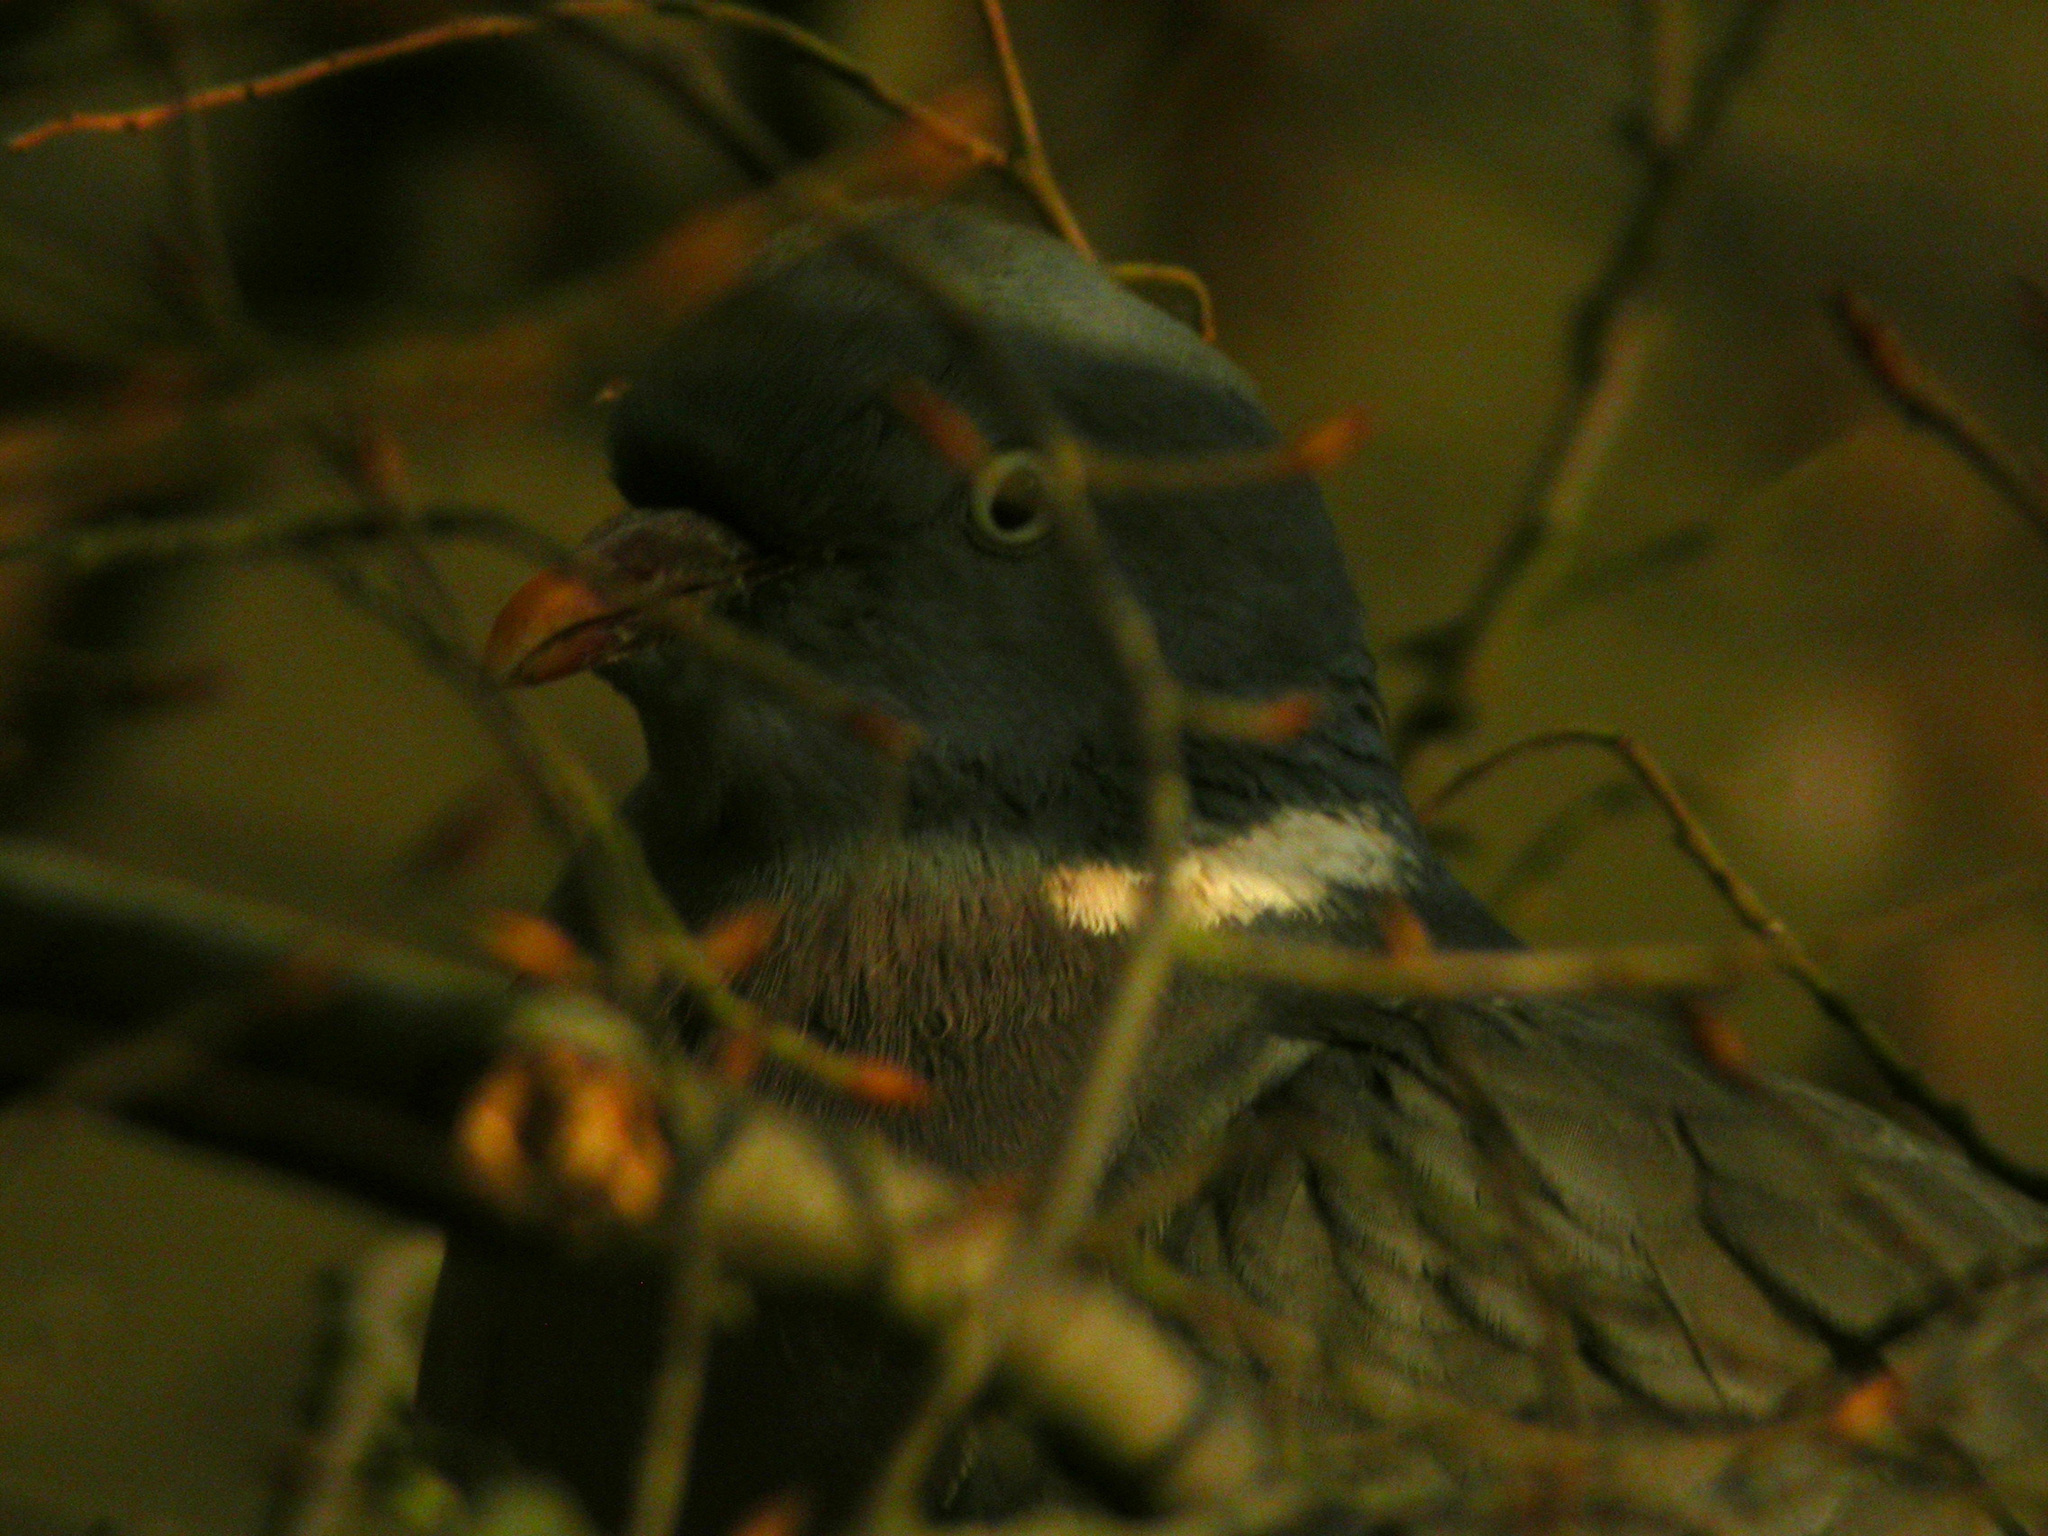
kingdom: Animalia
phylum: Chordata
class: Aves
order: Columbiformes
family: Columbidae
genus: Columba
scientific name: Columba palumbus
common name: Common wood pigeon
